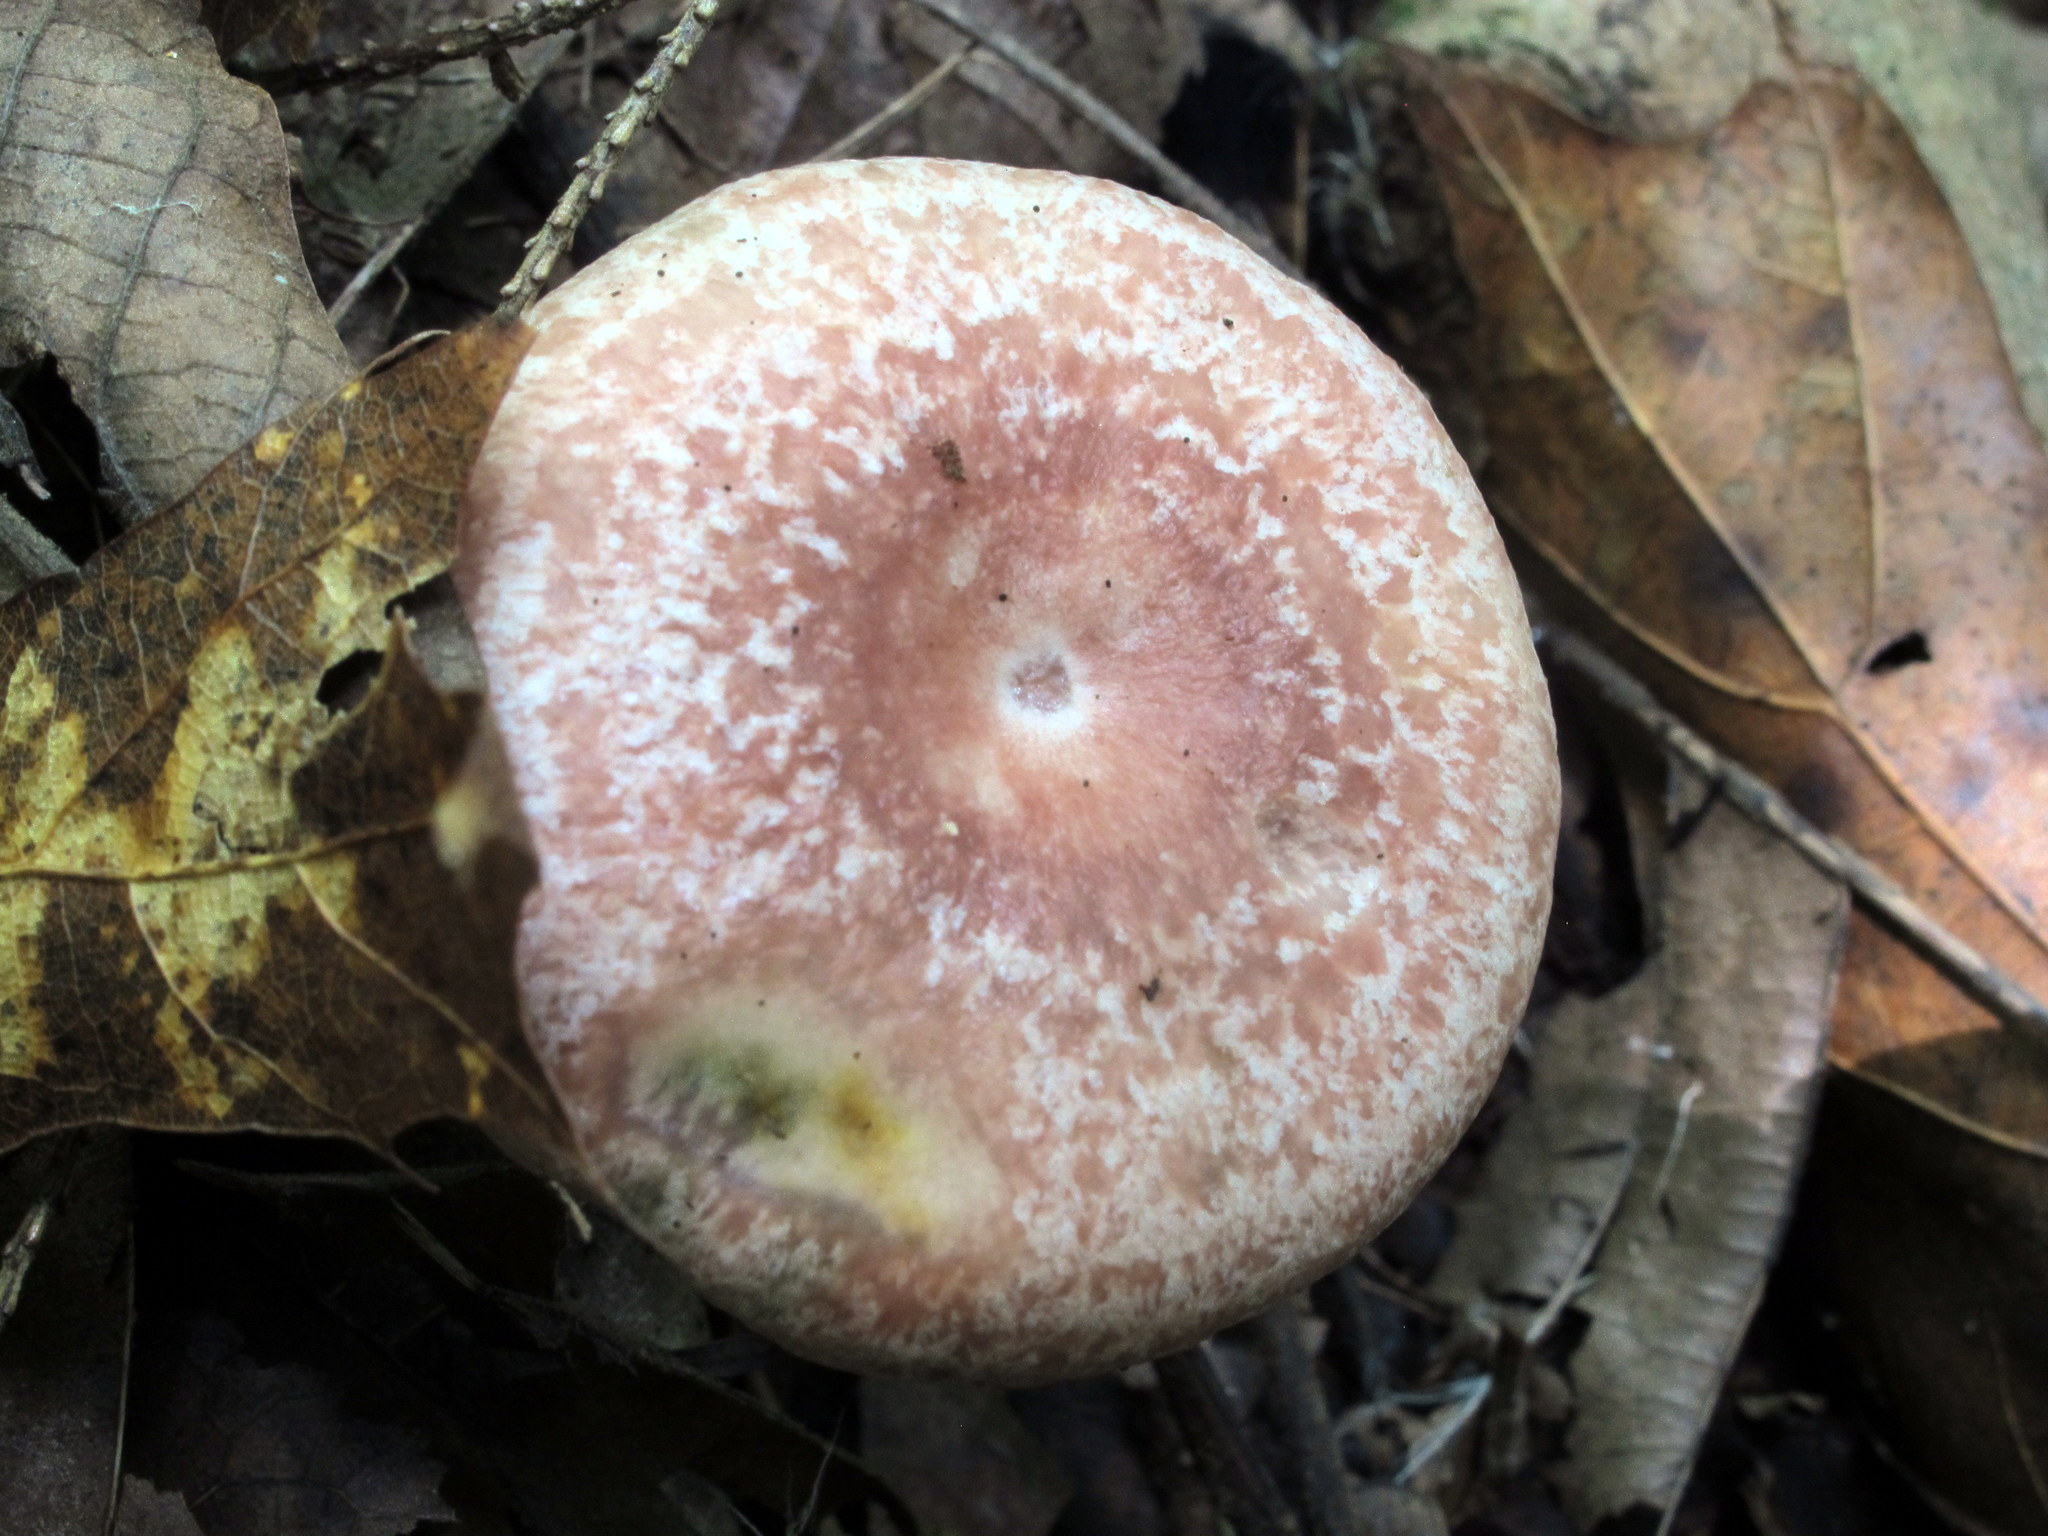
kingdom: Fungi
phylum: Basidiomycota
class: Agaricomycetes
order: Russulales
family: Russulaceae
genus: Lactarius
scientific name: Lactarius subpurpureus
